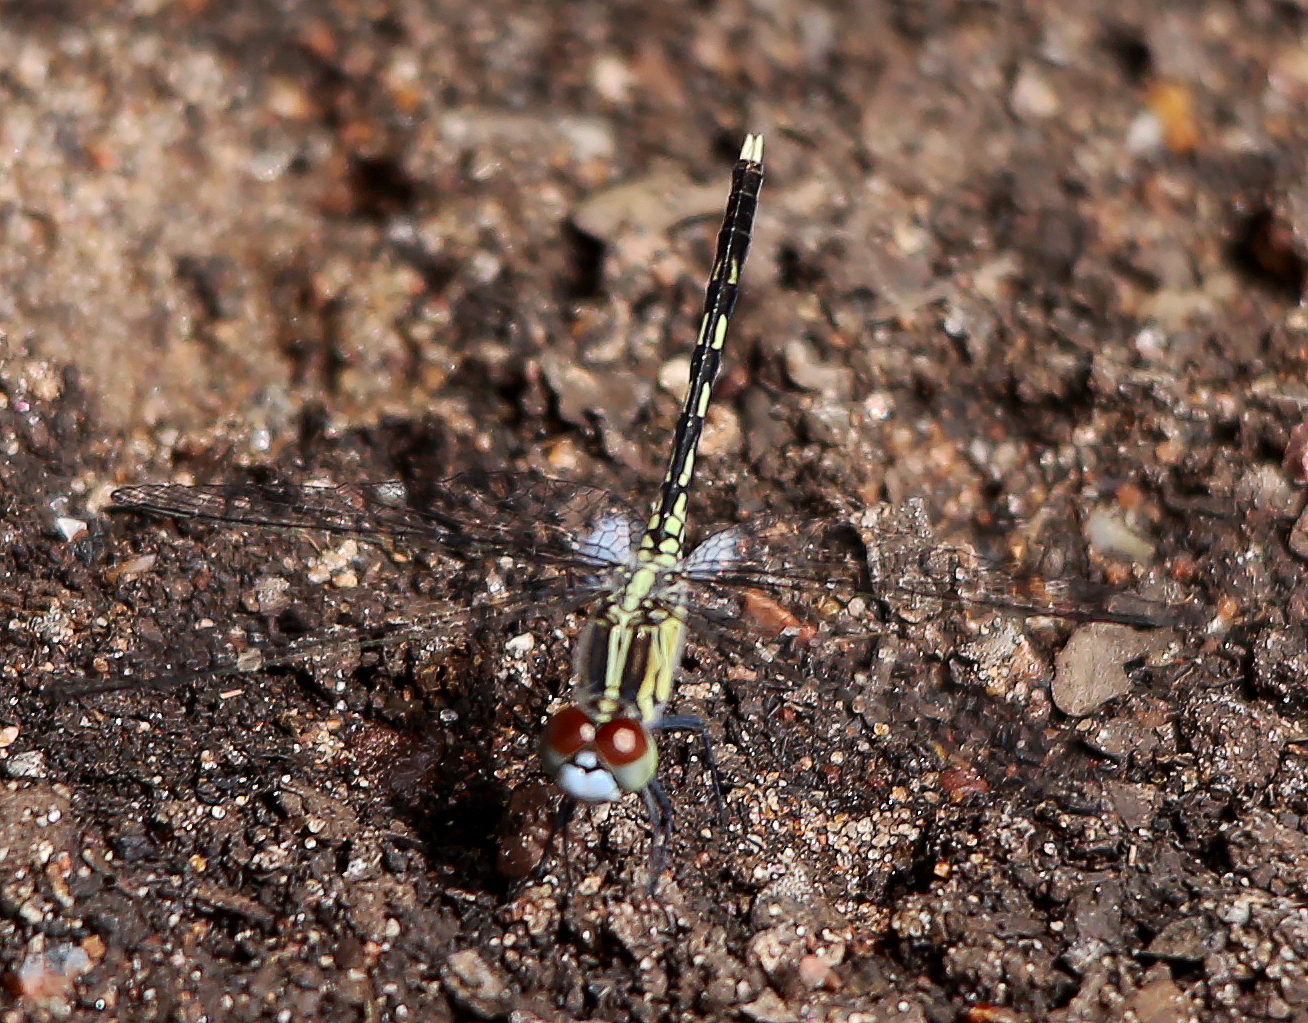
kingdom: Animalia
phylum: Arthropoda
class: Insecta
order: Odonata
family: Libellulidae
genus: Diplacodes
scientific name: Diplacodes trivialis
